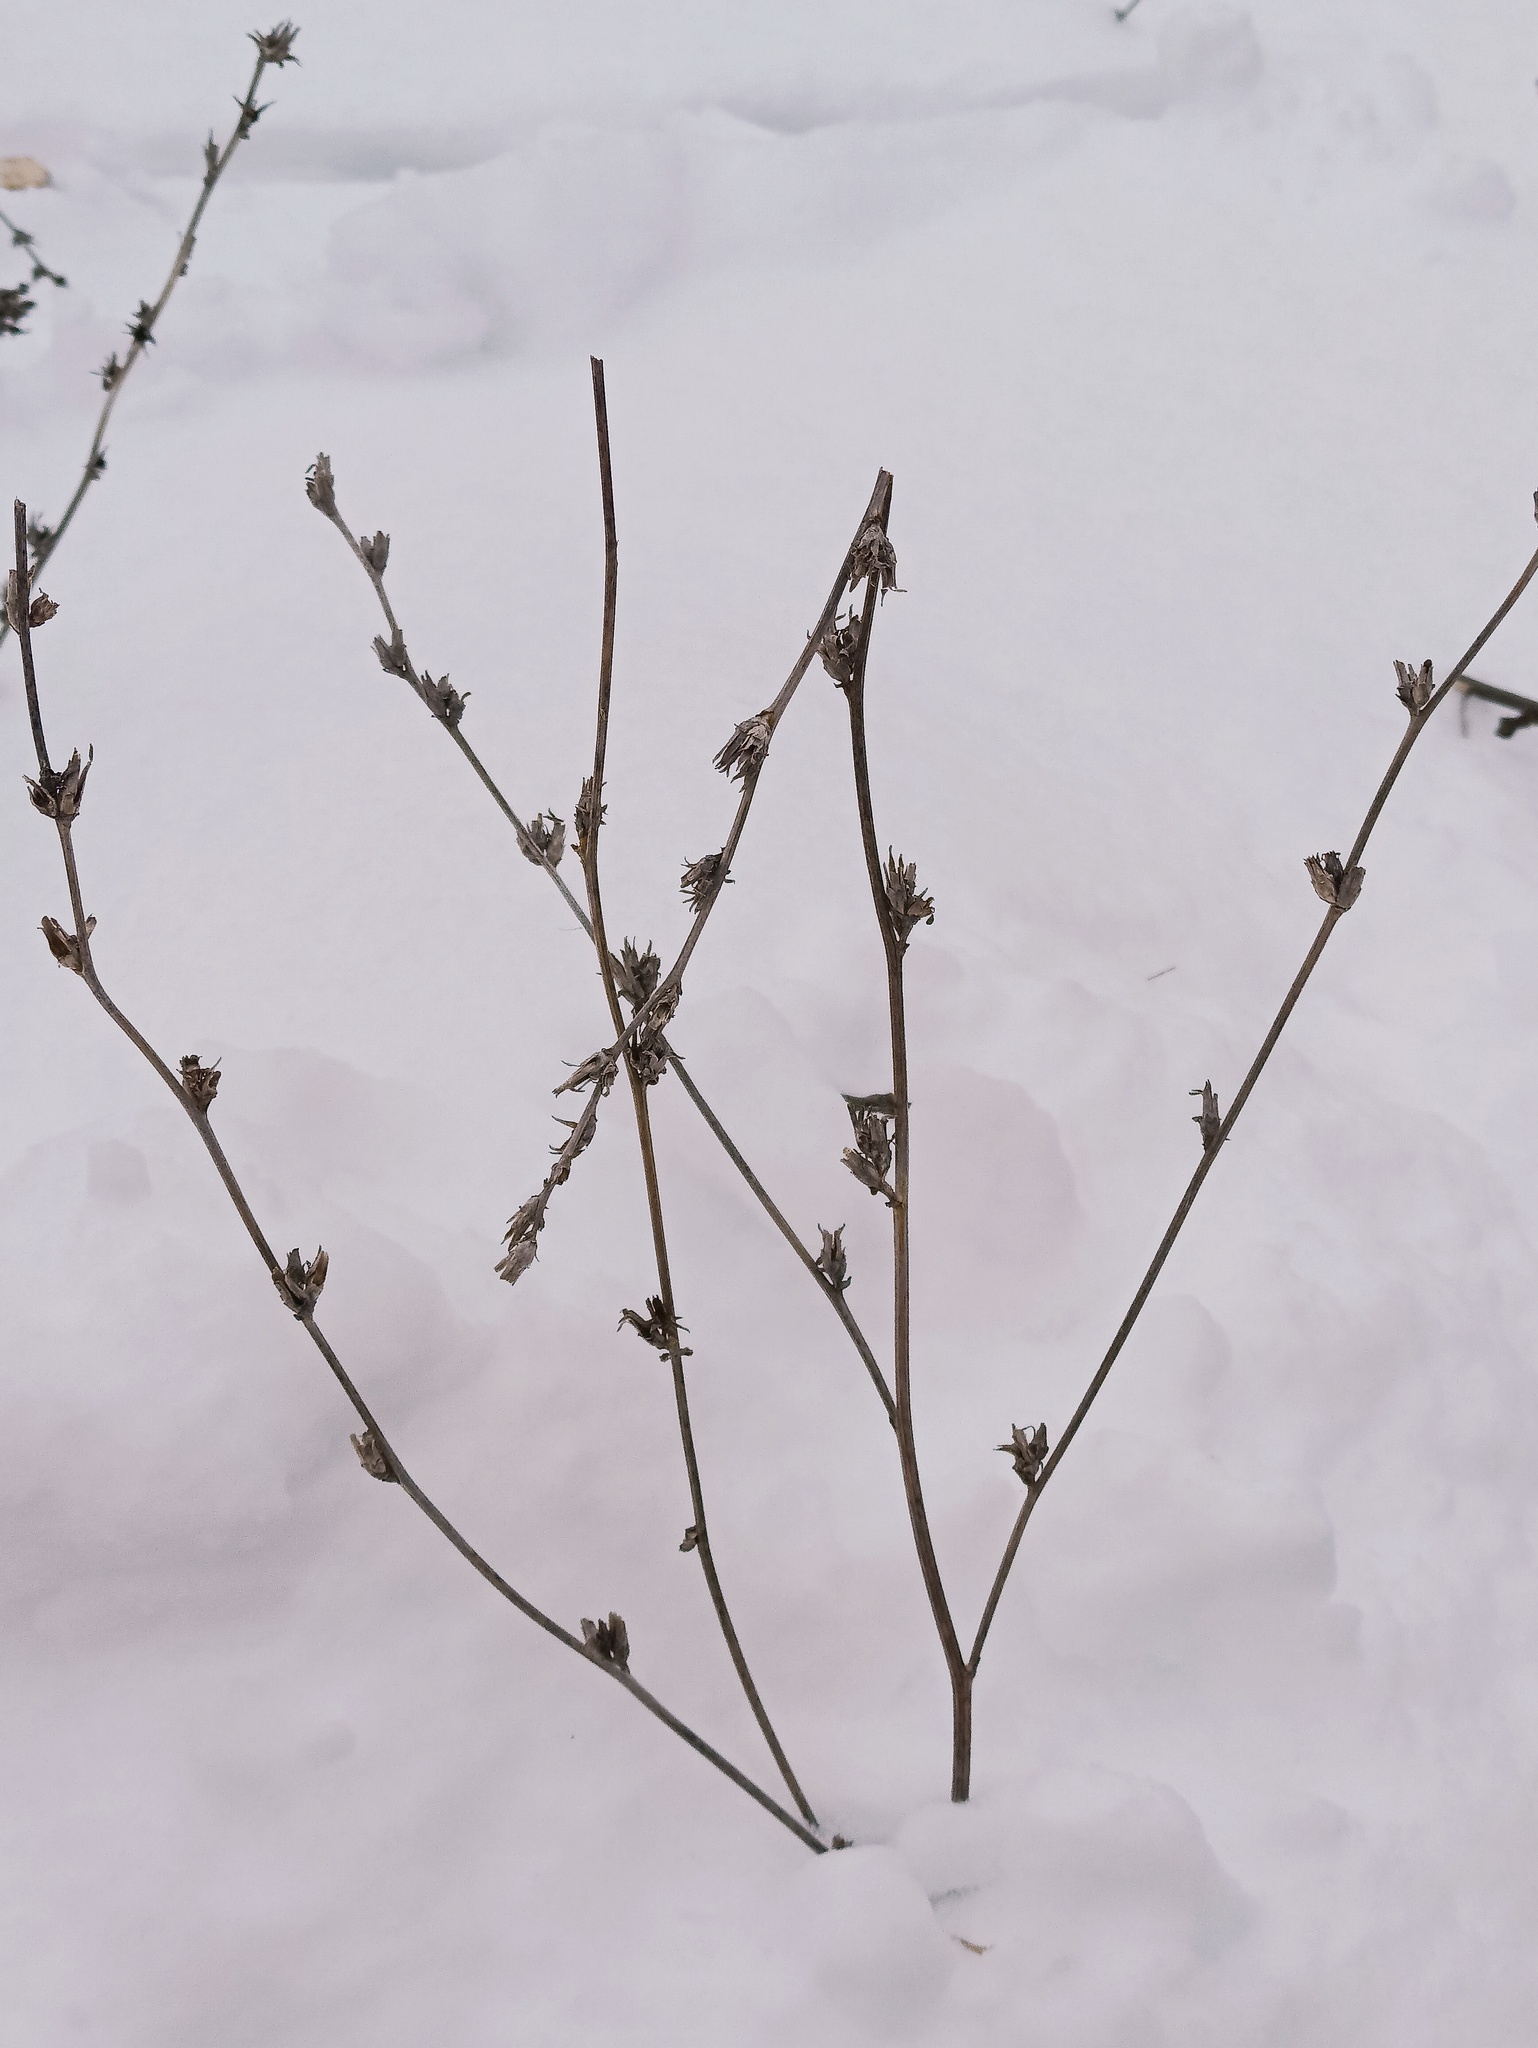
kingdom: Plantae
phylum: Tracheophyta
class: Magnoliopsida
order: Asterales
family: Asteraceae
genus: Cichorium
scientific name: Cichorium intybus
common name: Chicory
